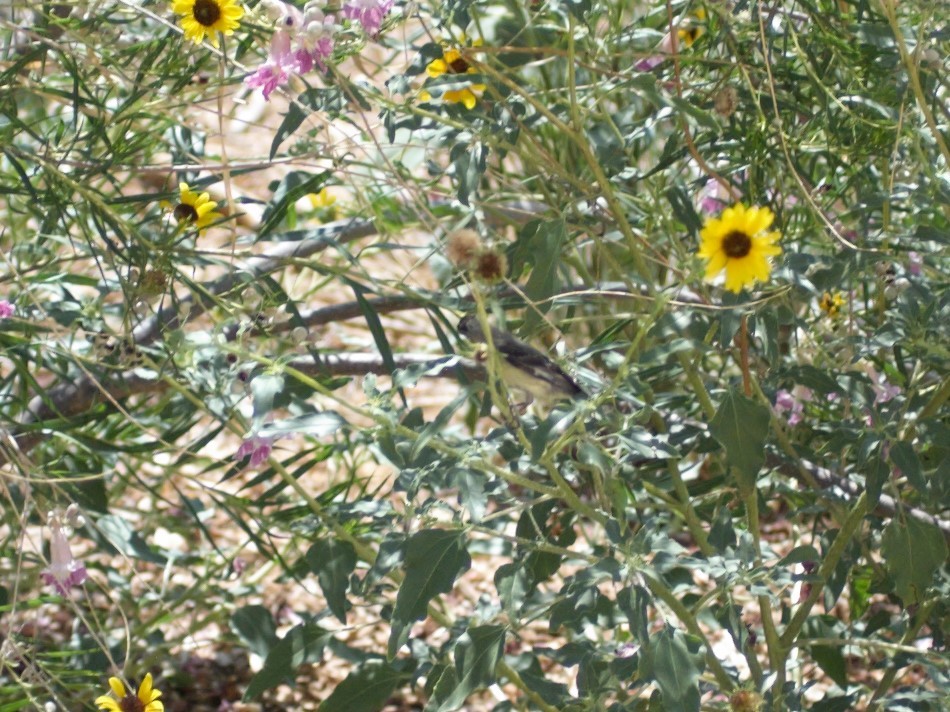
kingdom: Animalia
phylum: Chordata
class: Aves
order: Passeriformes
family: Fringillidae
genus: Spinus
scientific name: Spinus psaltria
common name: Lesser goldfinch
